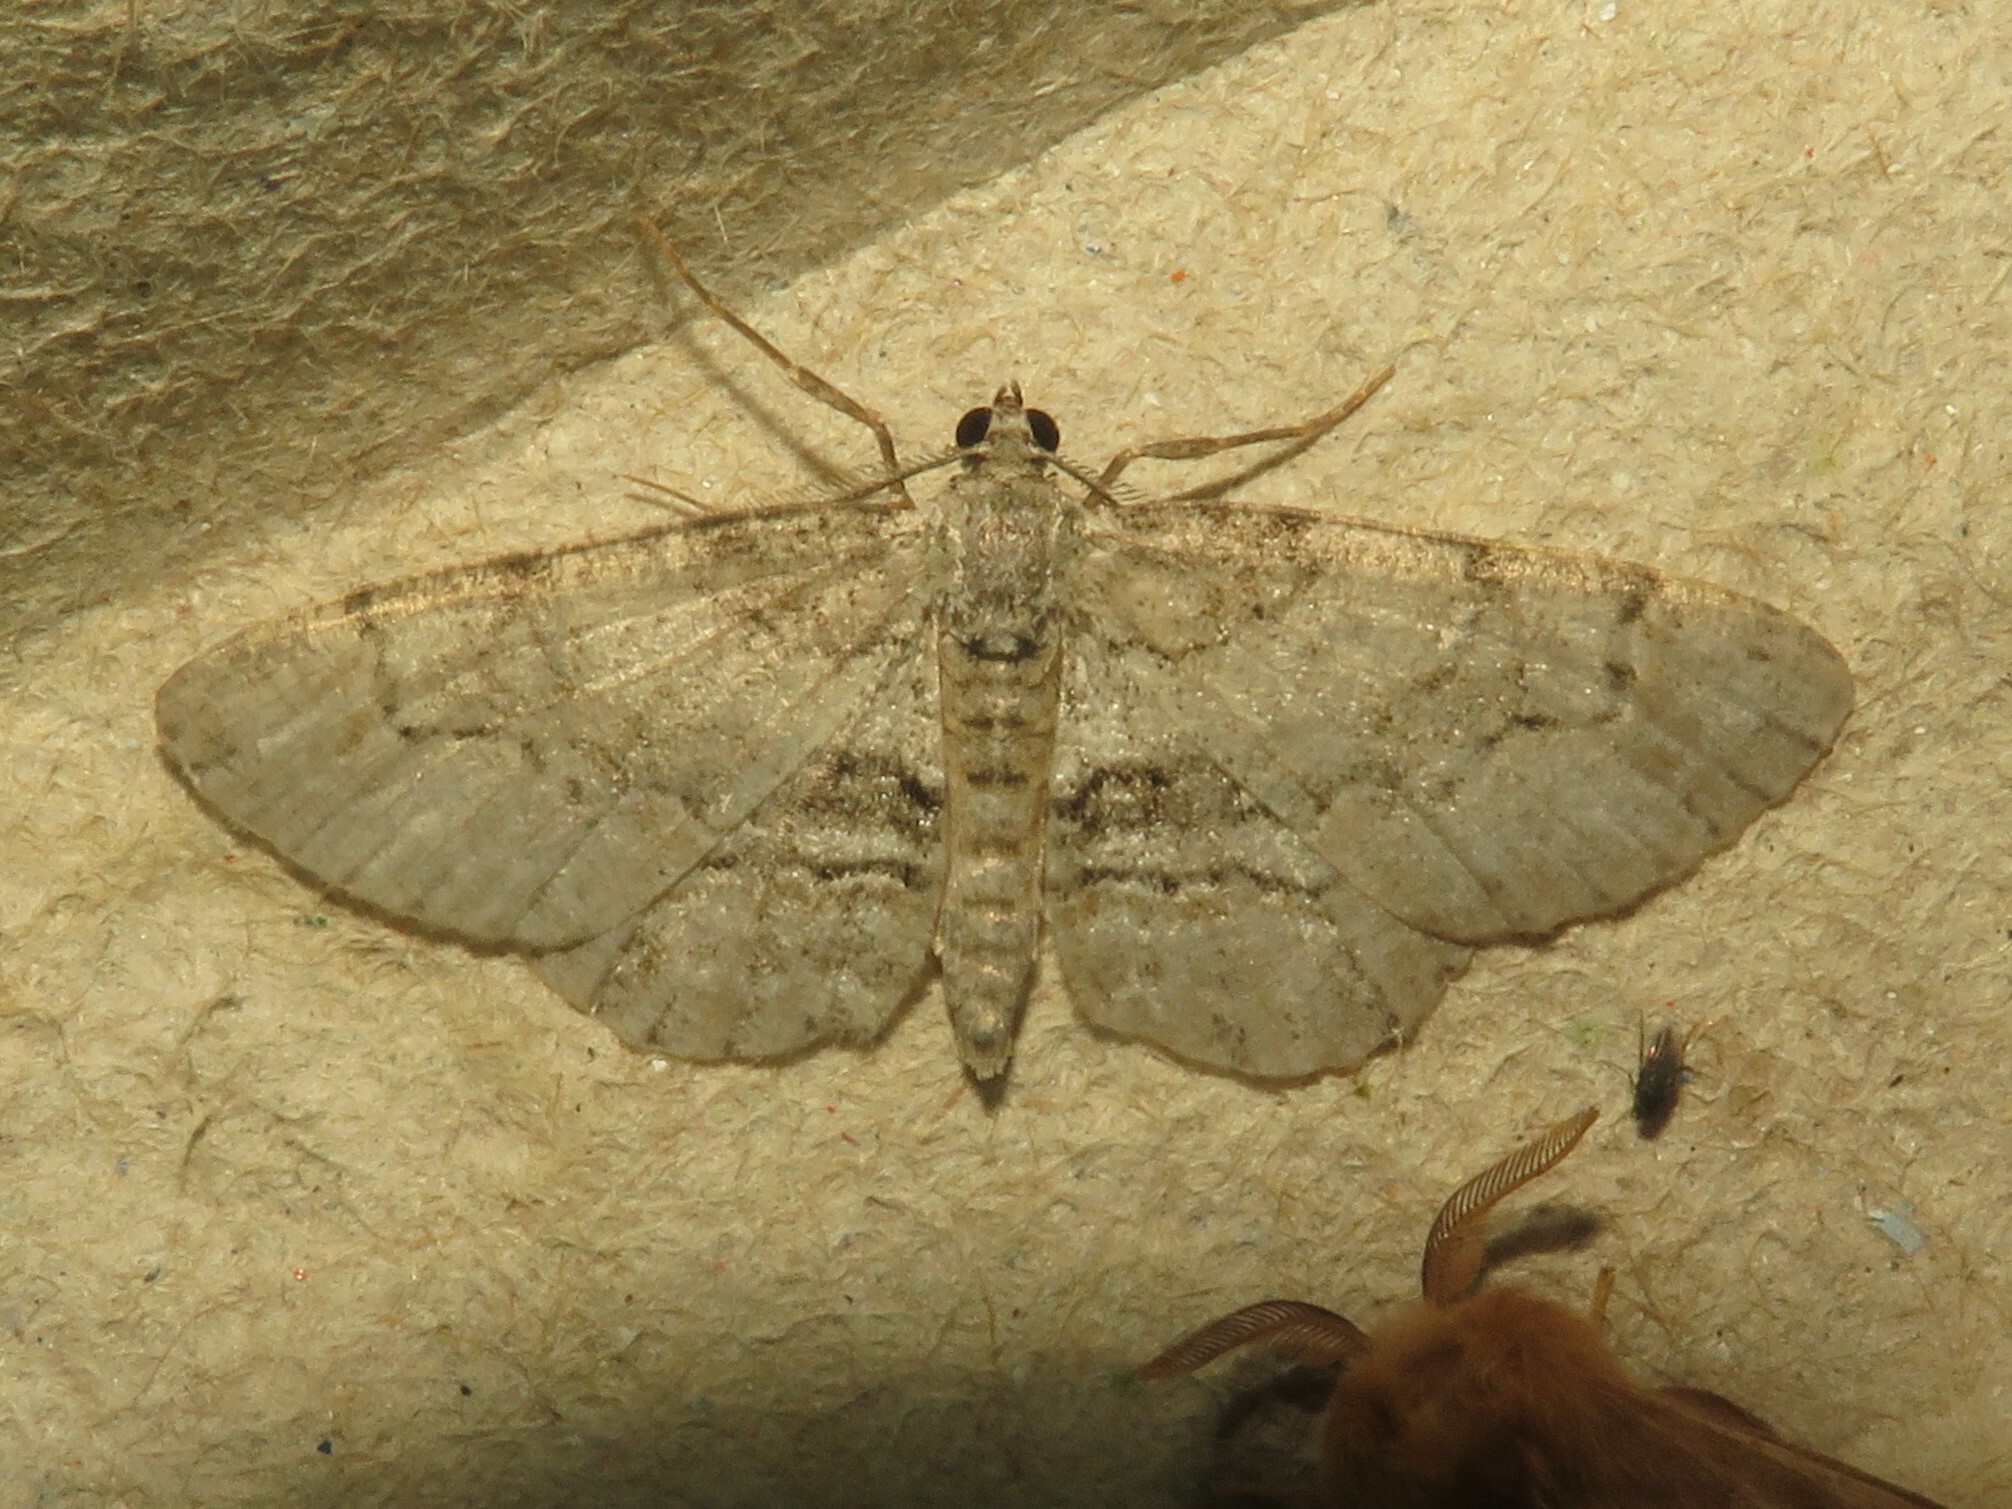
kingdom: Animalia
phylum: Arthropoda
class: Insecta
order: Lepidoptera
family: Geometridae
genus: Iridopsis
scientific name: Iridopsis ephyraria
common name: Pale-winged gray
